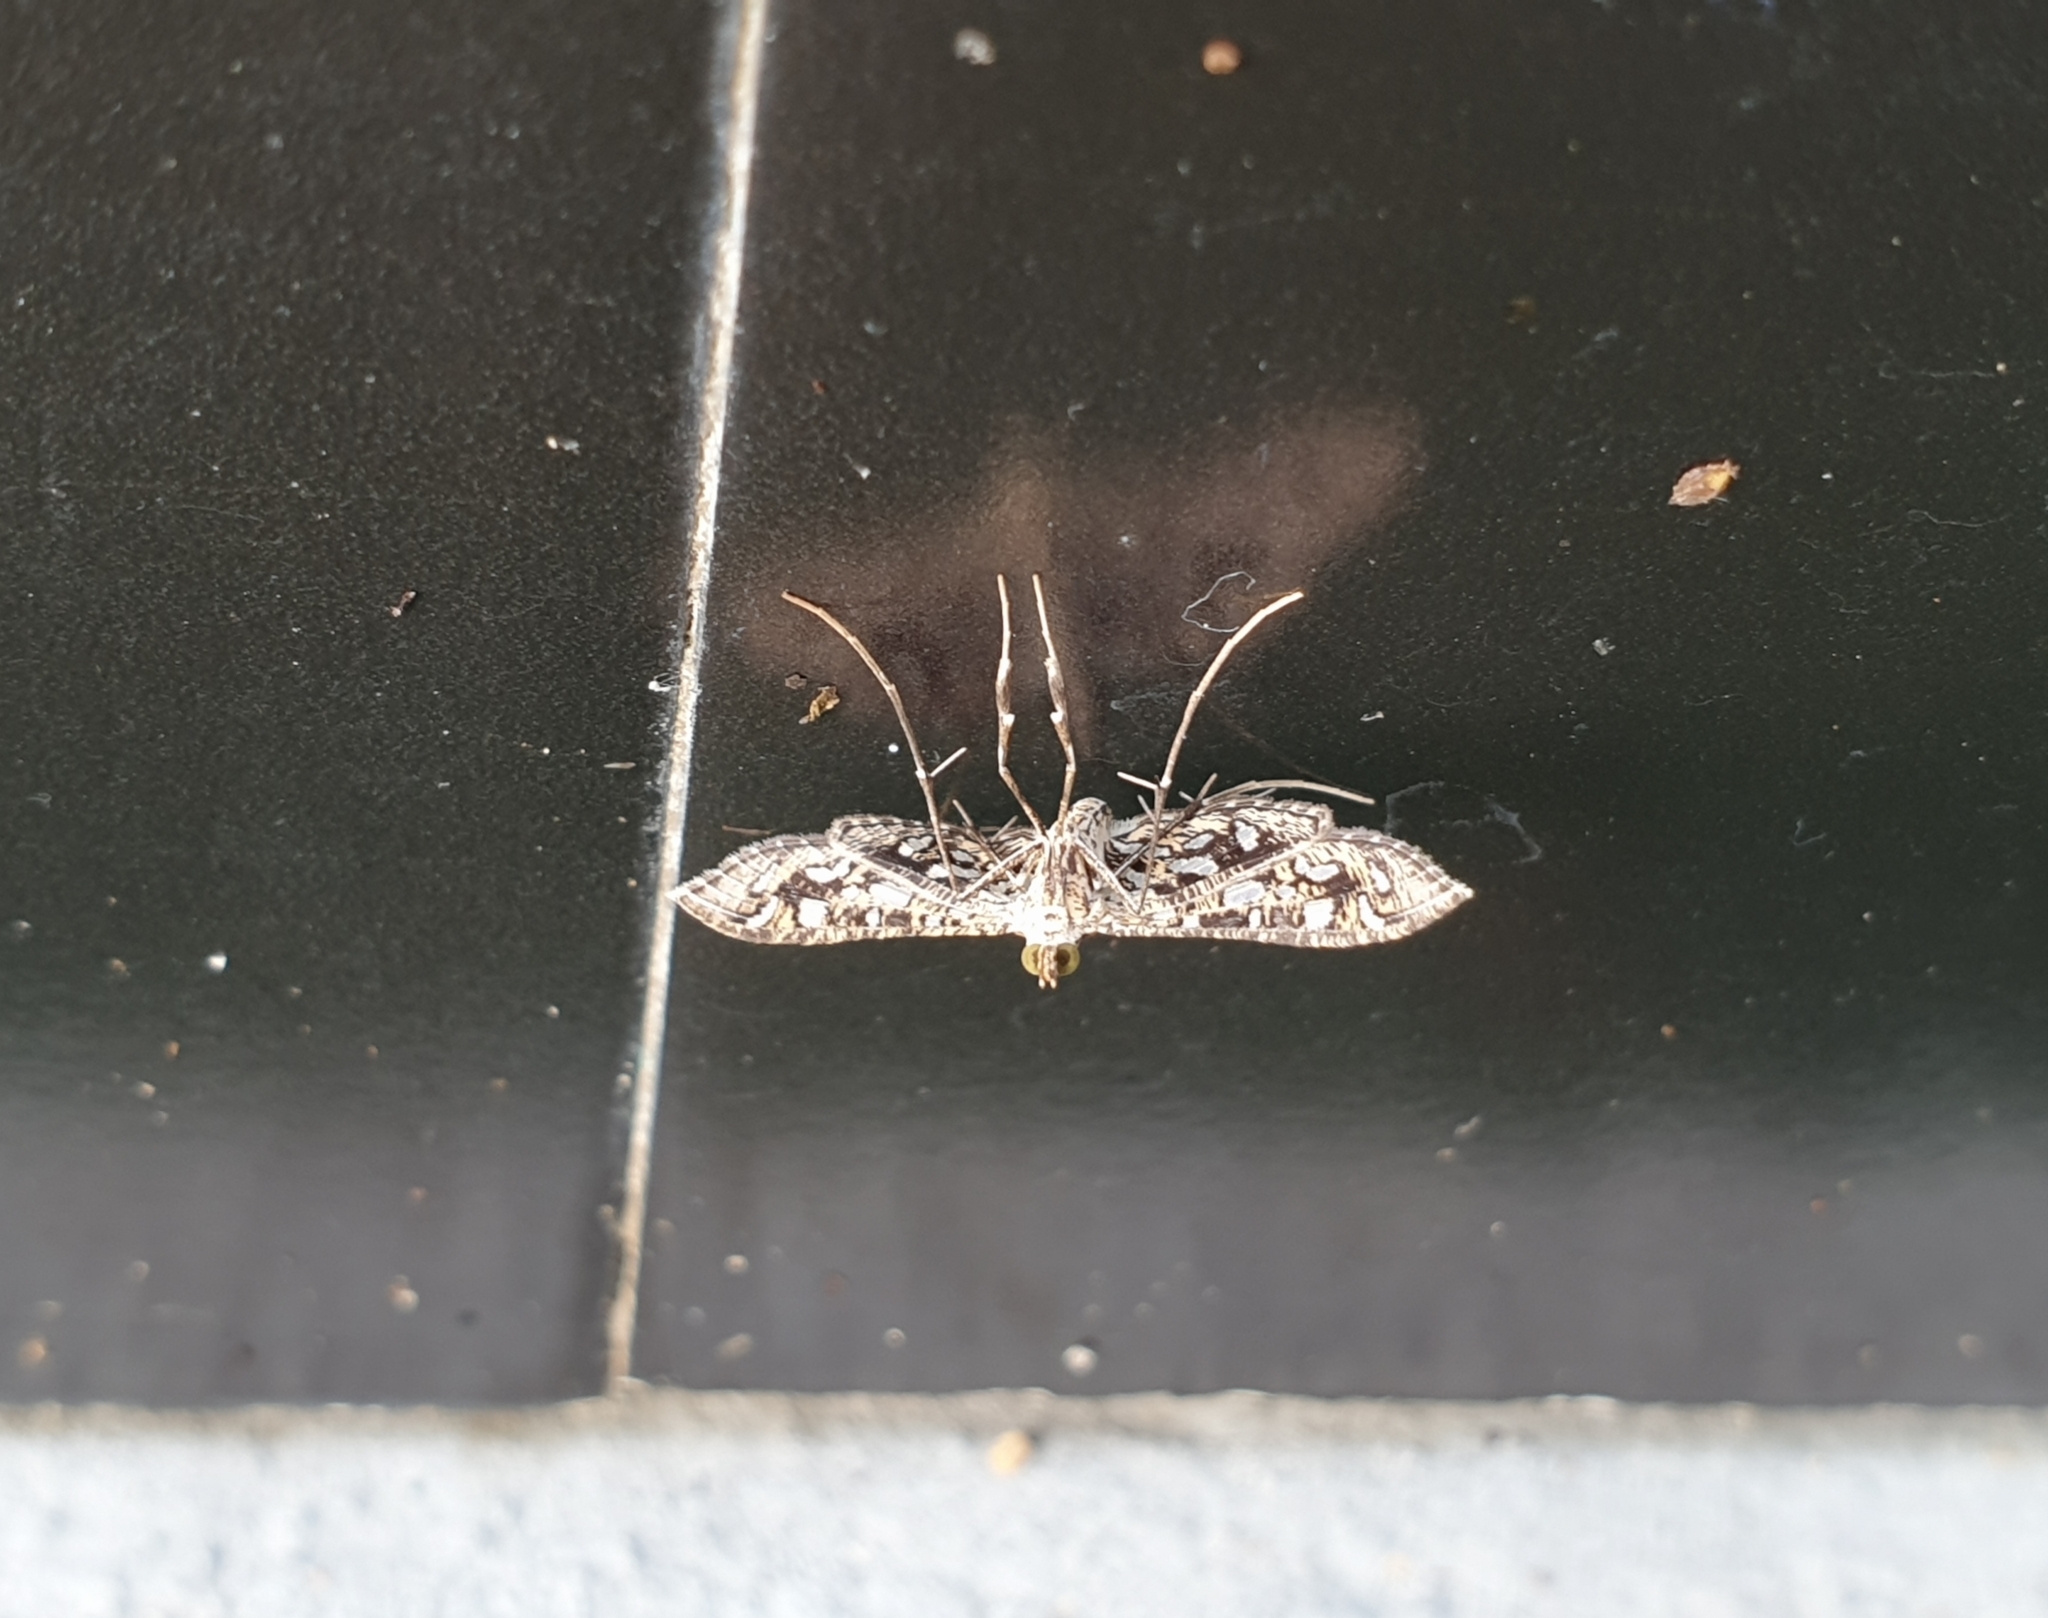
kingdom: Animalia
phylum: Arthropoda
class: Insecta
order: Lepidoptera
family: Crambidae
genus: Nausinoe
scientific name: Nausinoe geometralis
